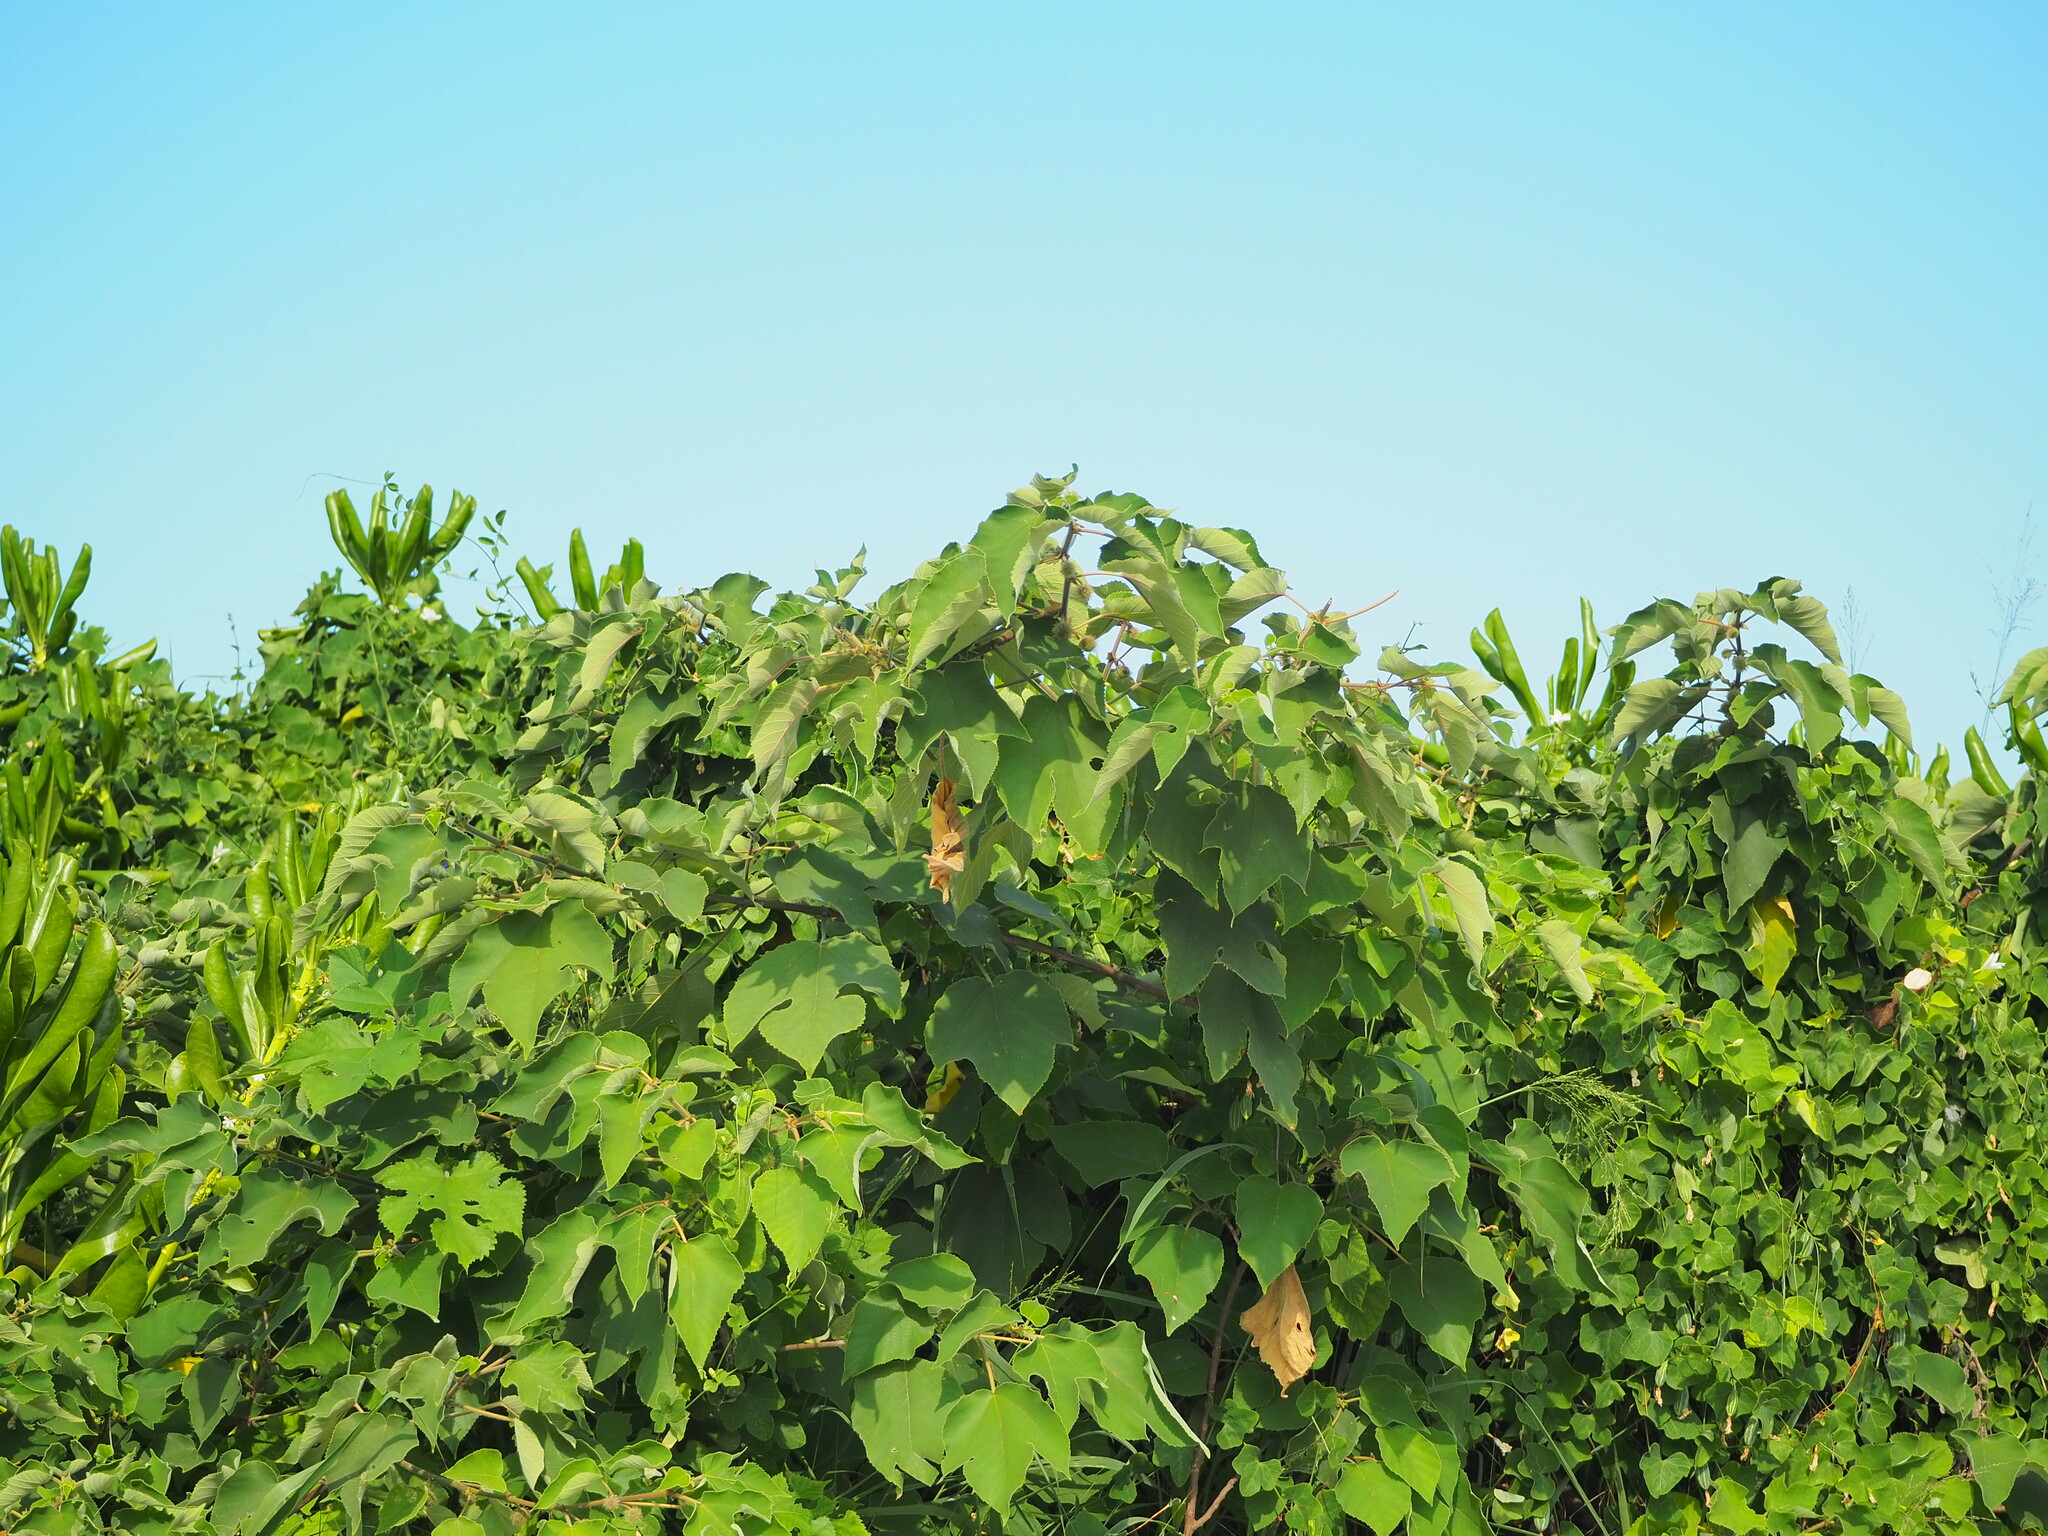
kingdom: Plantae
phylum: Tracheophyta
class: Magnoliopsida
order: Rosales
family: Moraceae
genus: Broussonetia
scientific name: Broussonetia papyrifera
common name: Paper mulberry
